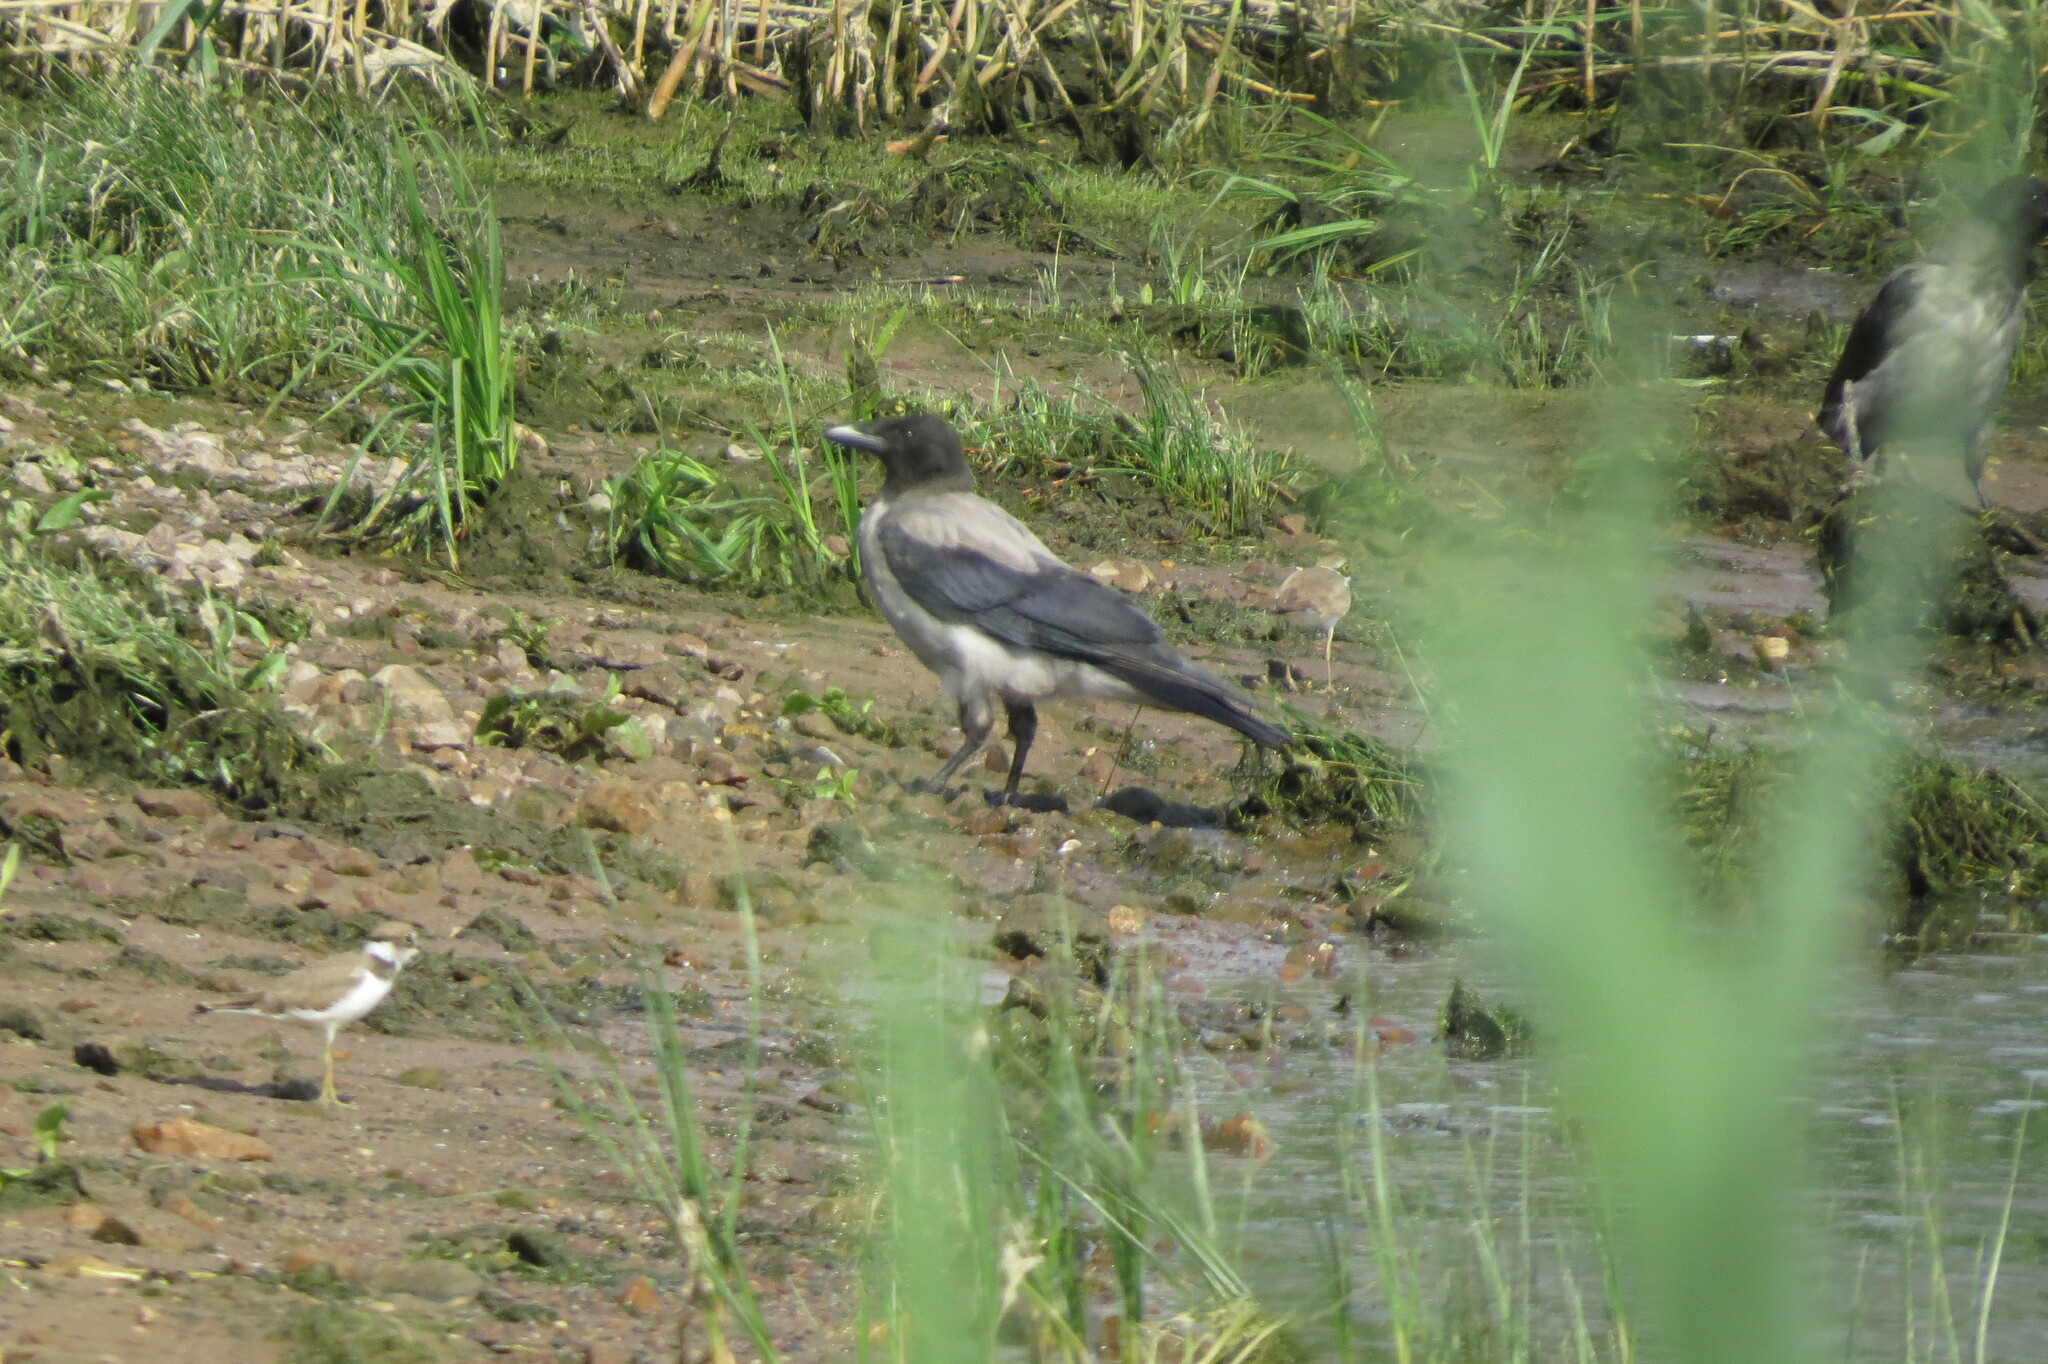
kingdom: Animalia
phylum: Chordata
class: Aves
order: Charadriiformes
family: Charadriidae
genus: Charadrius
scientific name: Charadrius dubius
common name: Little ringed plover
